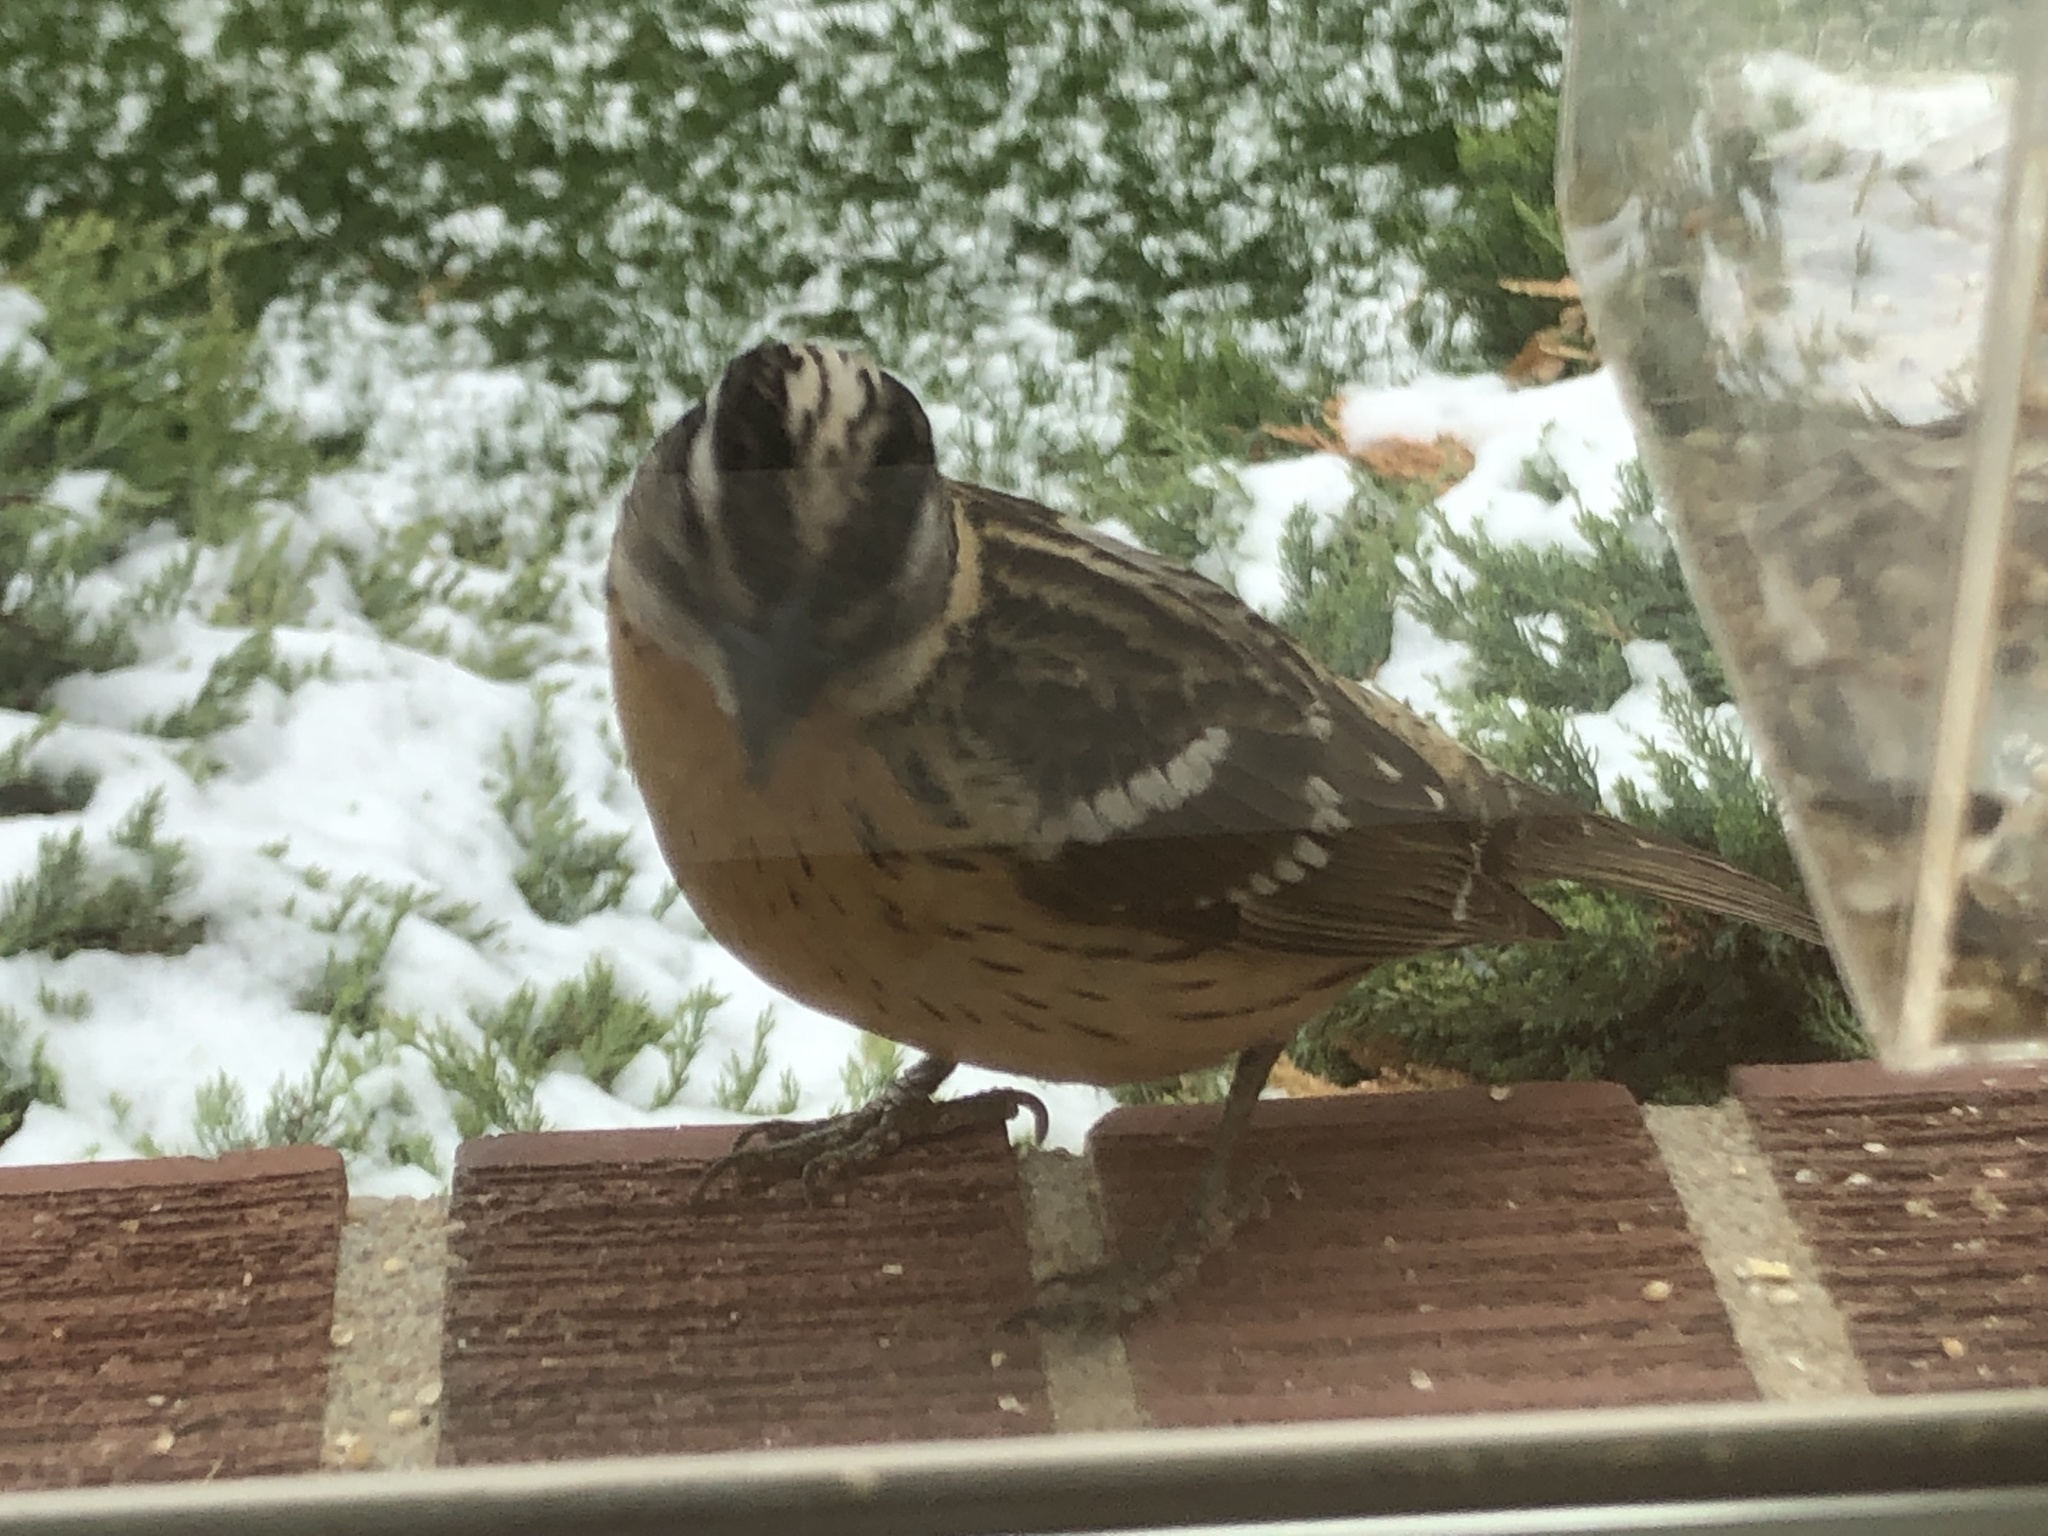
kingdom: Animalia
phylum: Chordata
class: Aves
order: Passeriformes
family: Cardinalidae
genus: Pheucticus
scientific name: Pheucticus melanocephalus
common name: Black-headed grosbeak
